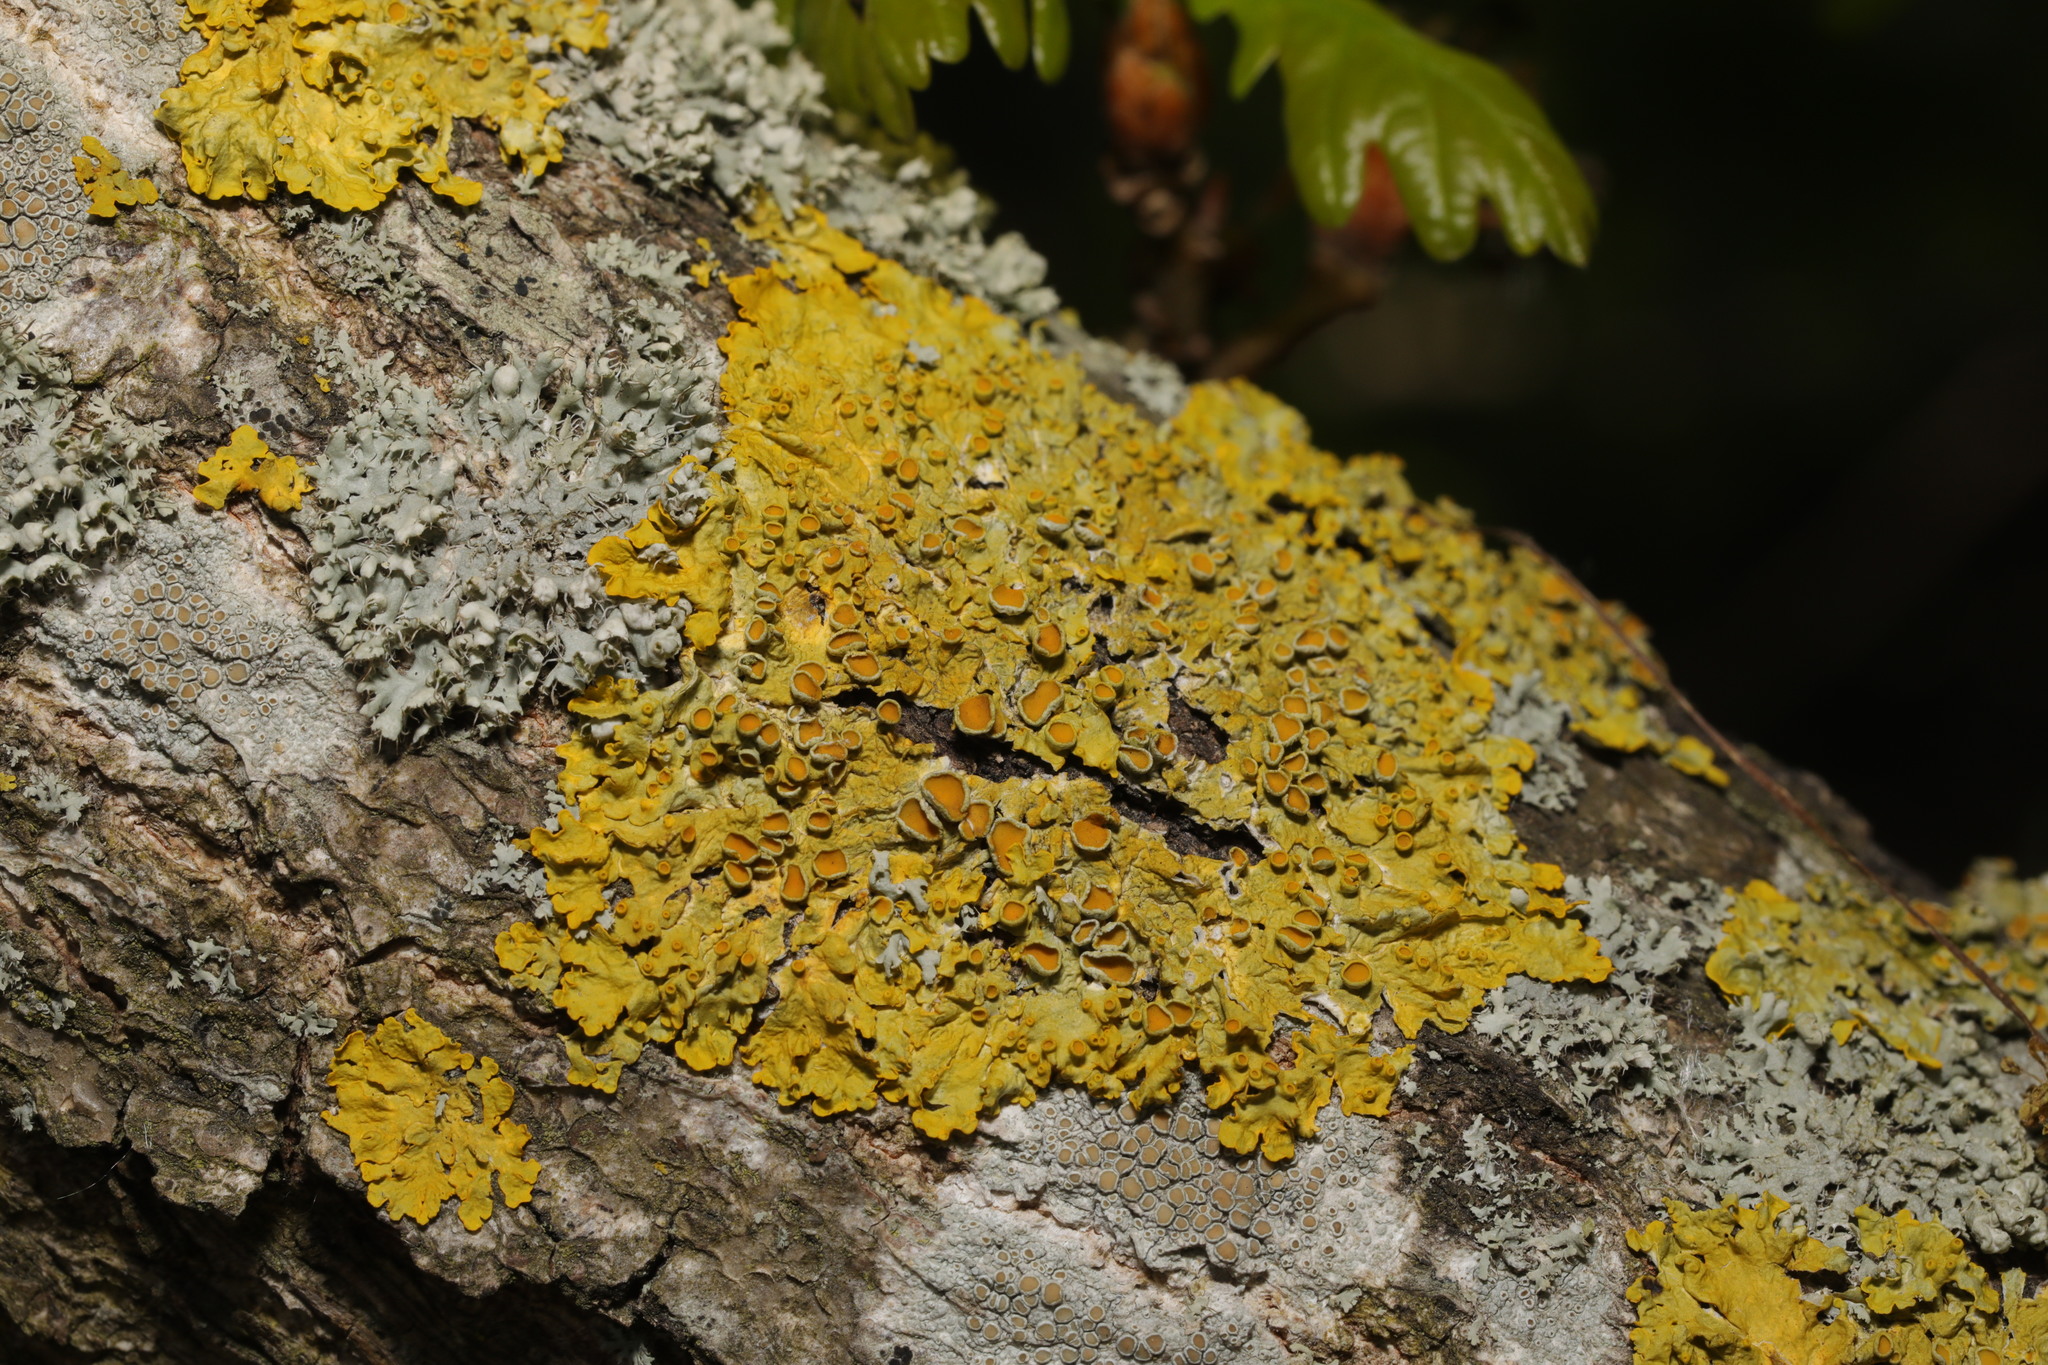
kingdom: Fungi
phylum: Ascomycota
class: Lecanoromycetes
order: Teloschistales
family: Teloschistaceae
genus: Xanthoria
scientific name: Xanthoria parietina
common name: Common orange lichen
